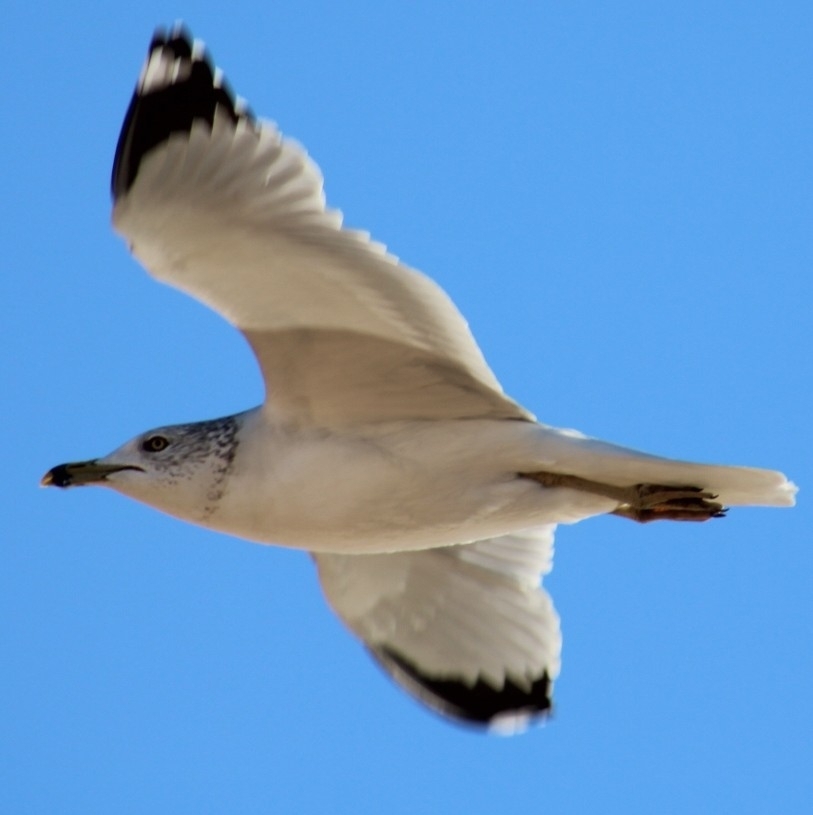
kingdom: Animalia
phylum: Chordata
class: Aves
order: Charadriiformes
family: Laridae
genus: Larus
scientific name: Larus delawarensis
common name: Ring-billed gull
